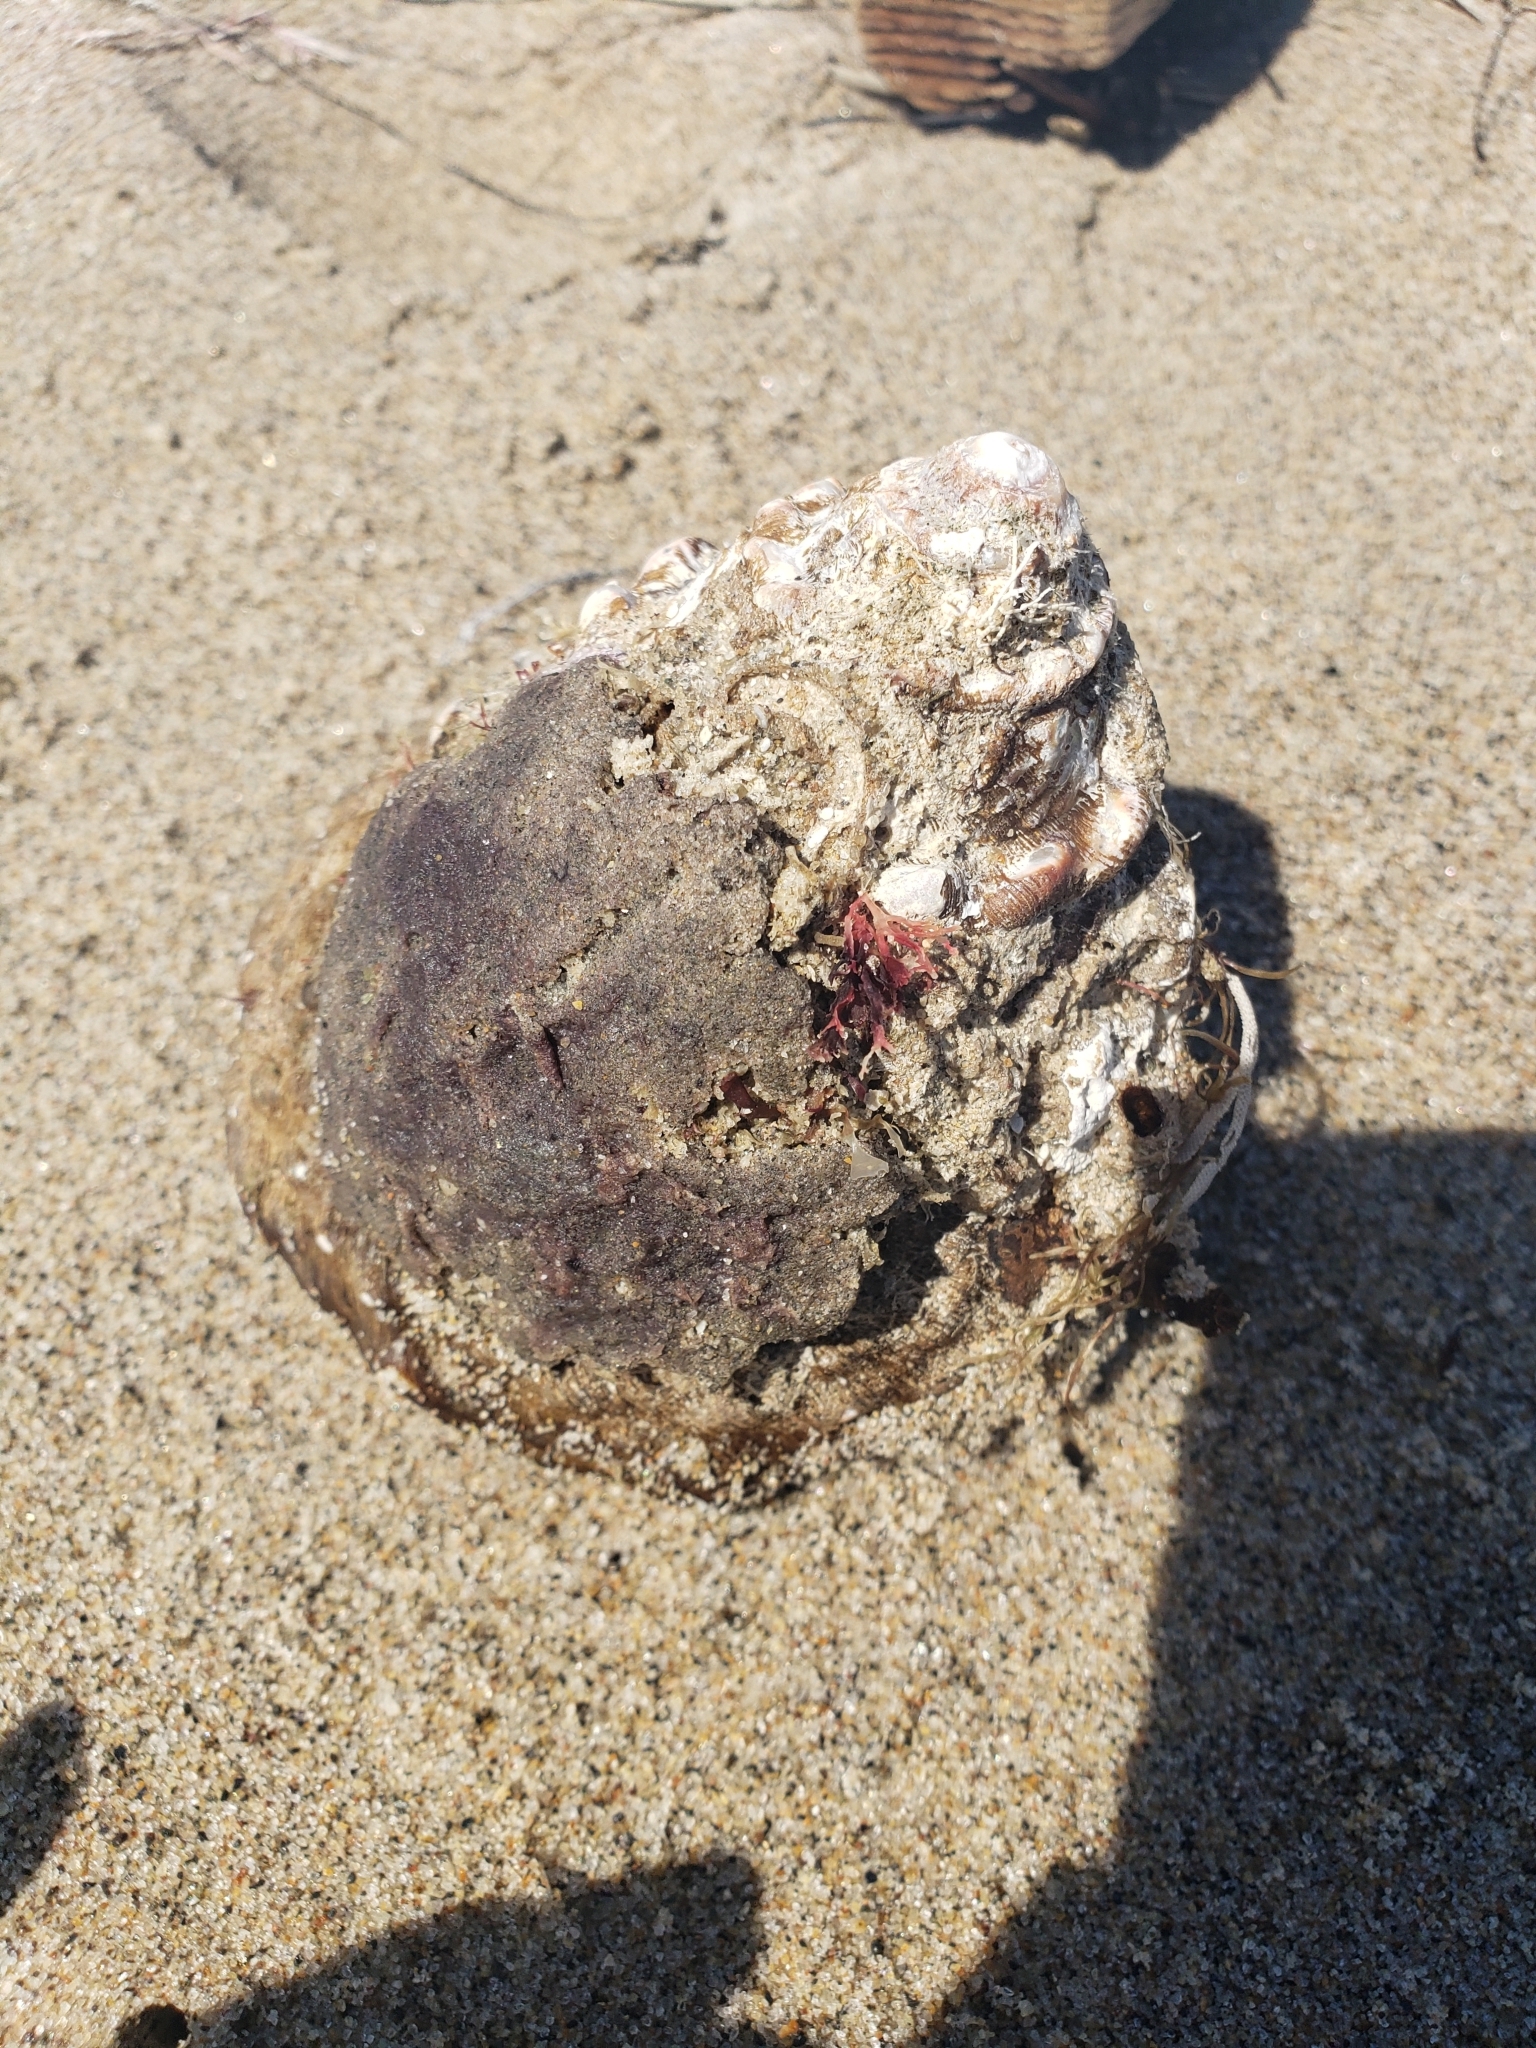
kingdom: Animalia
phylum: Mollusca
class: Gastropoda
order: Trochida
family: Turbinidae
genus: Megastraea
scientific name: Megastraea undosa
